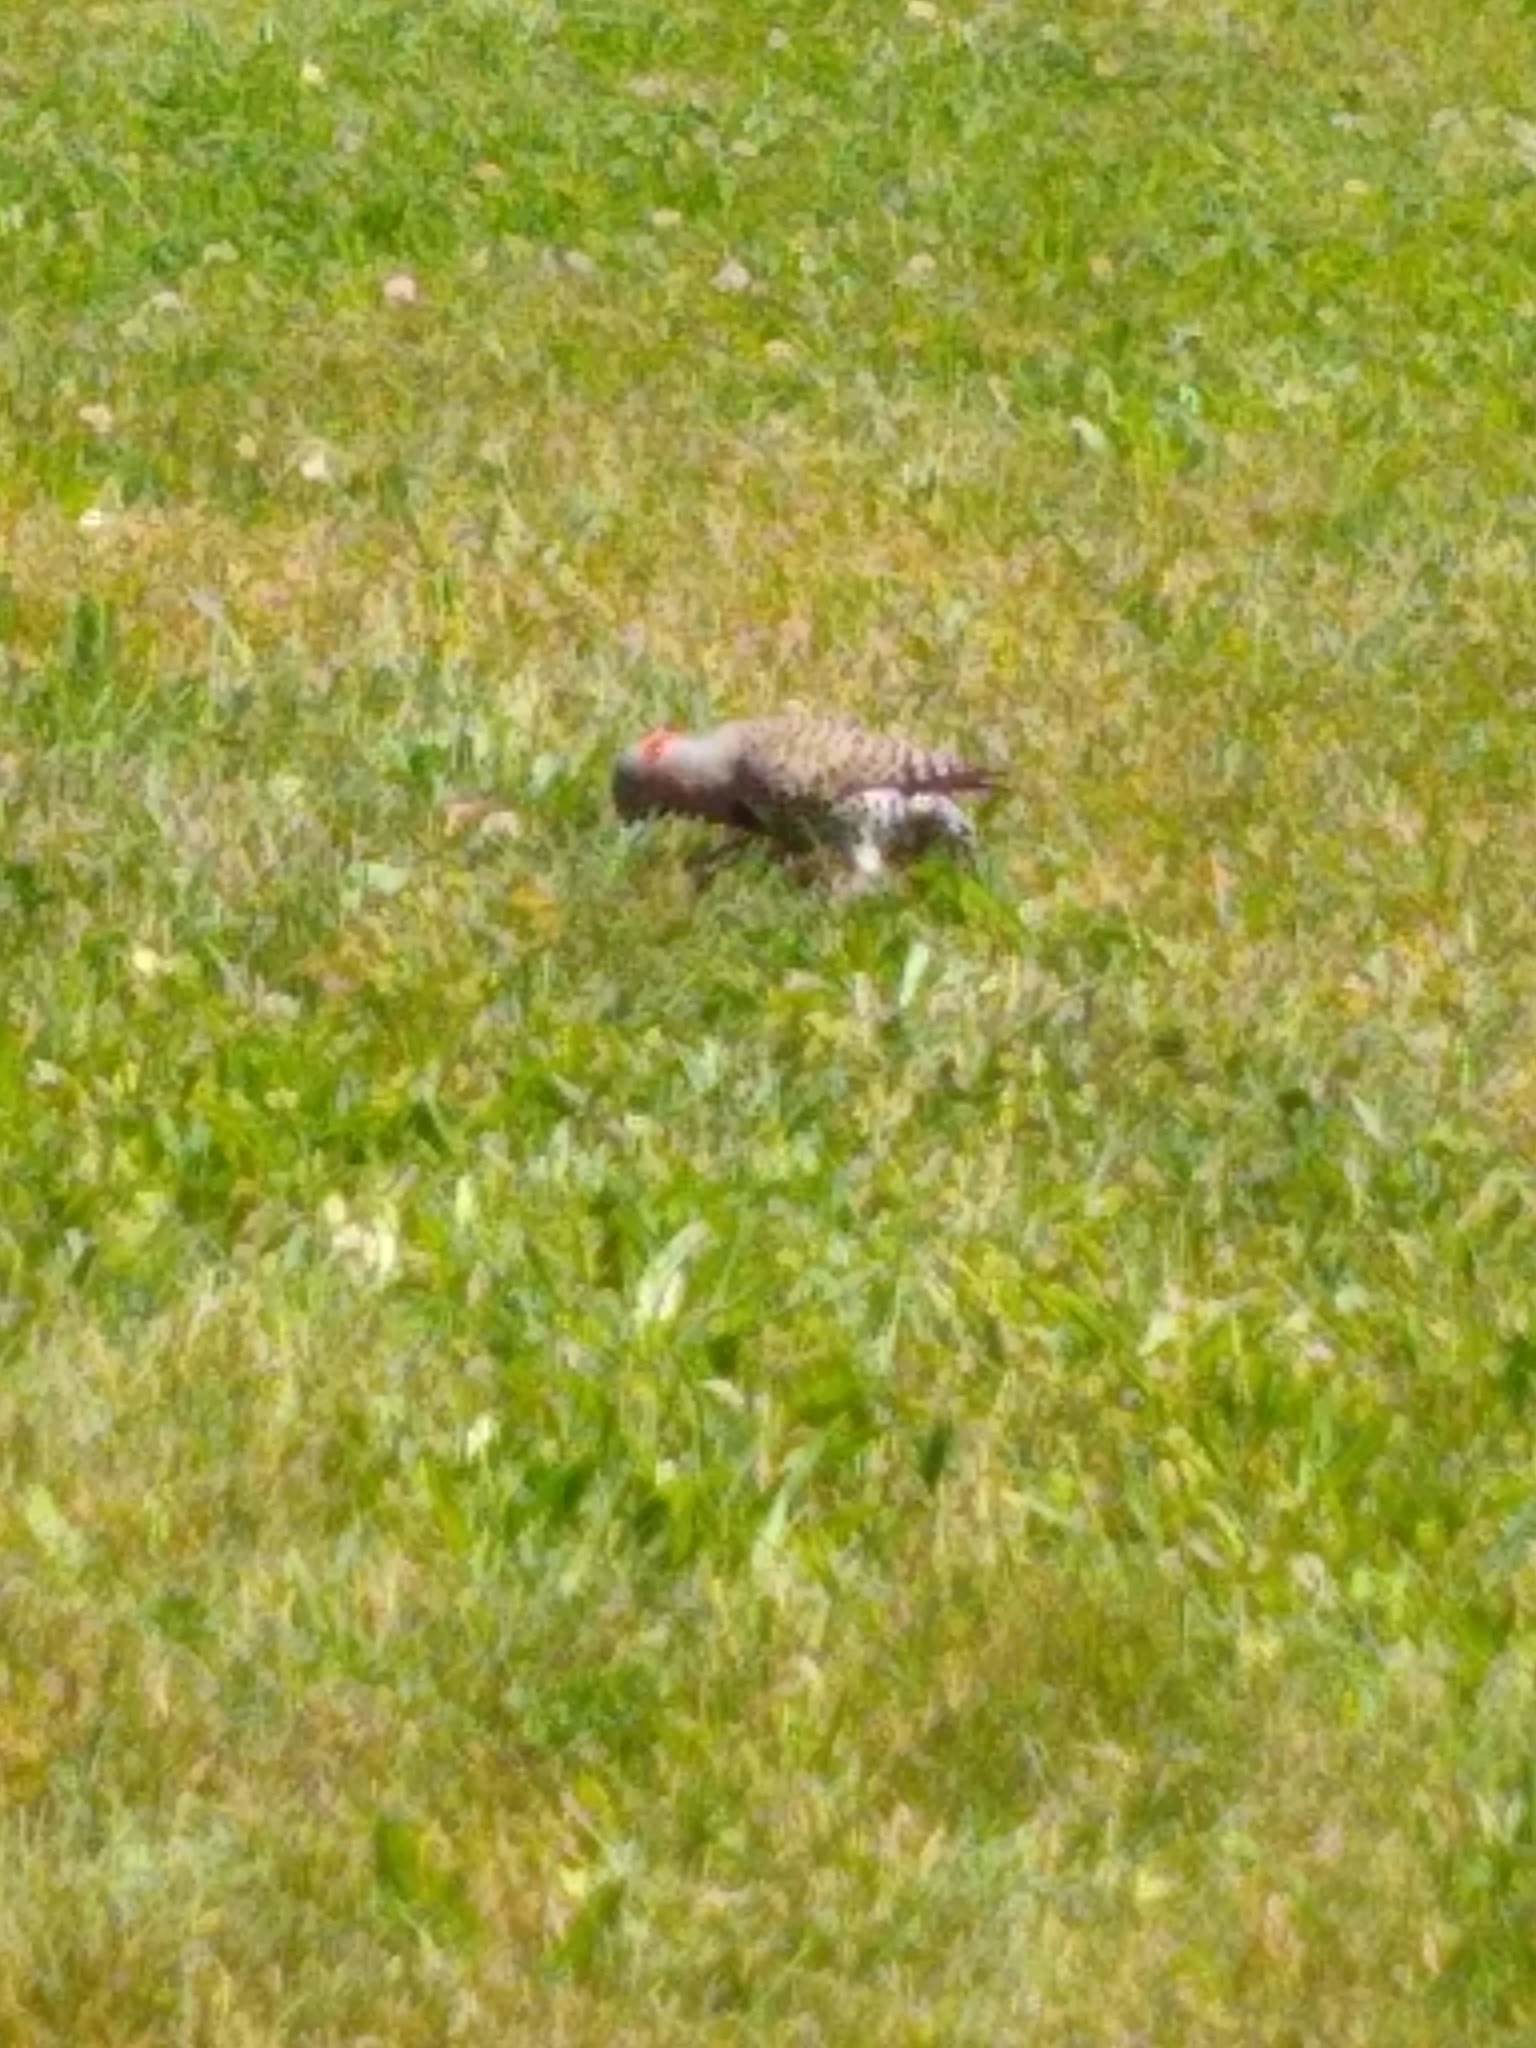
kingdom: Animalia
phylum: Chordata
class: Aves
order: Piciformes
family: Picidae
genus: Colaptes
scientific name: Colaptes auratus
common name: Northern flicker
